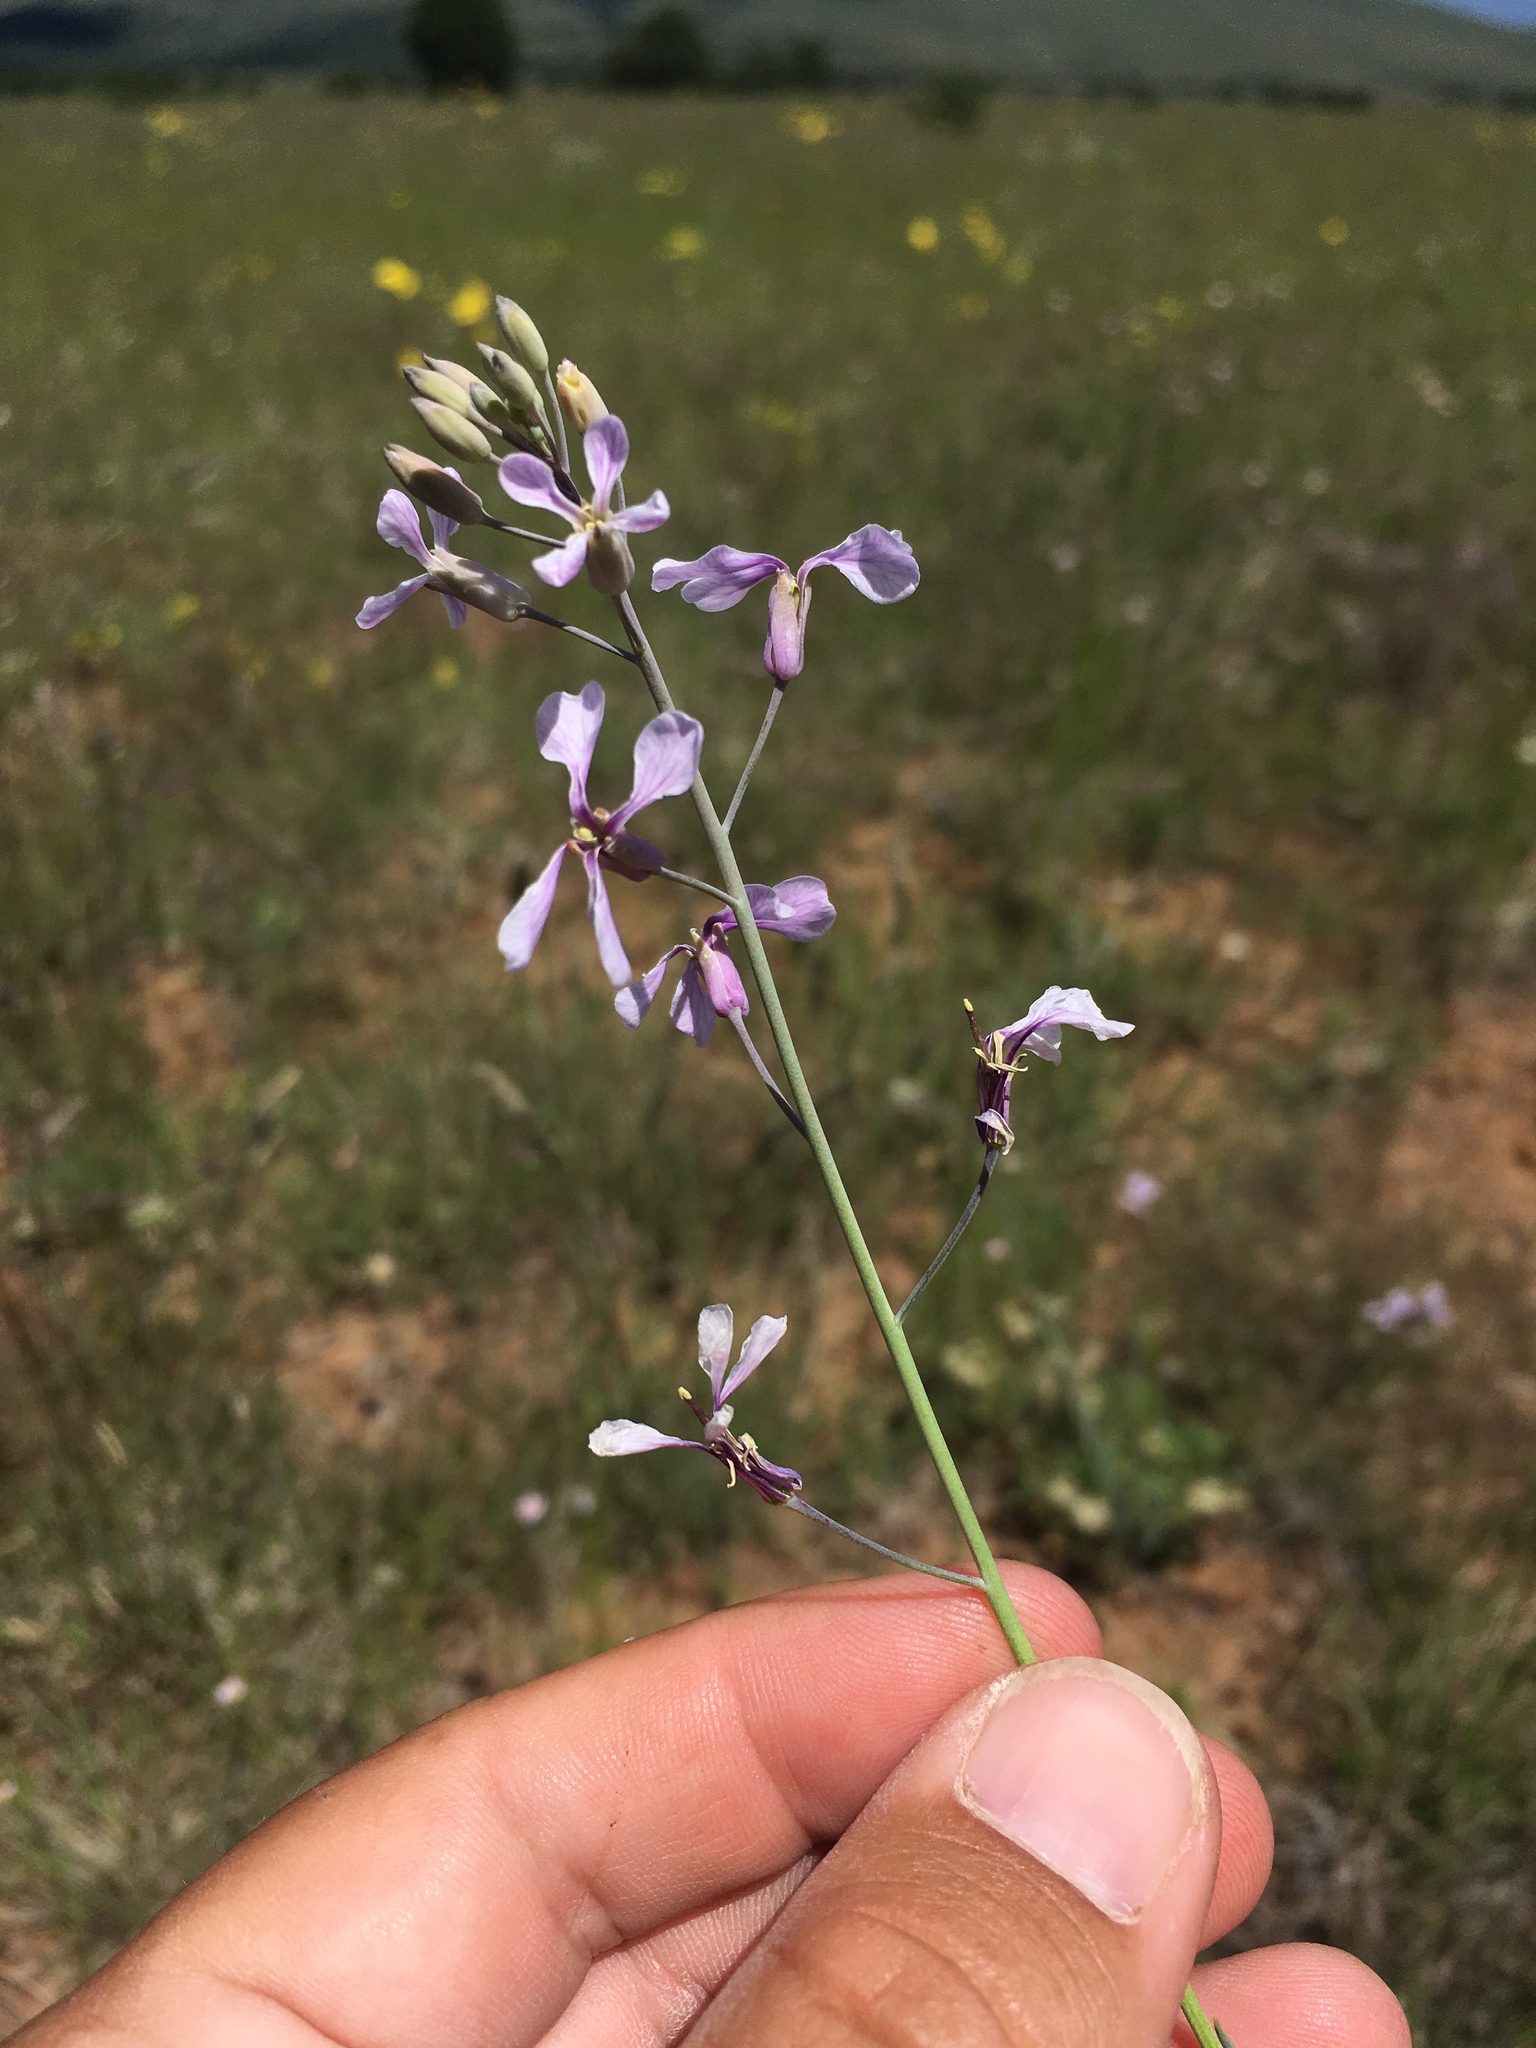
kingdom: Plantae
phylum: Tracheophyta
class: Magnoliopsida
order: Brassicales
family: Brassicaceae
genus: Hesperidanthus
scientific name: Hesperidanthus linearifolius
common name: Slim-leaf plains mustard
